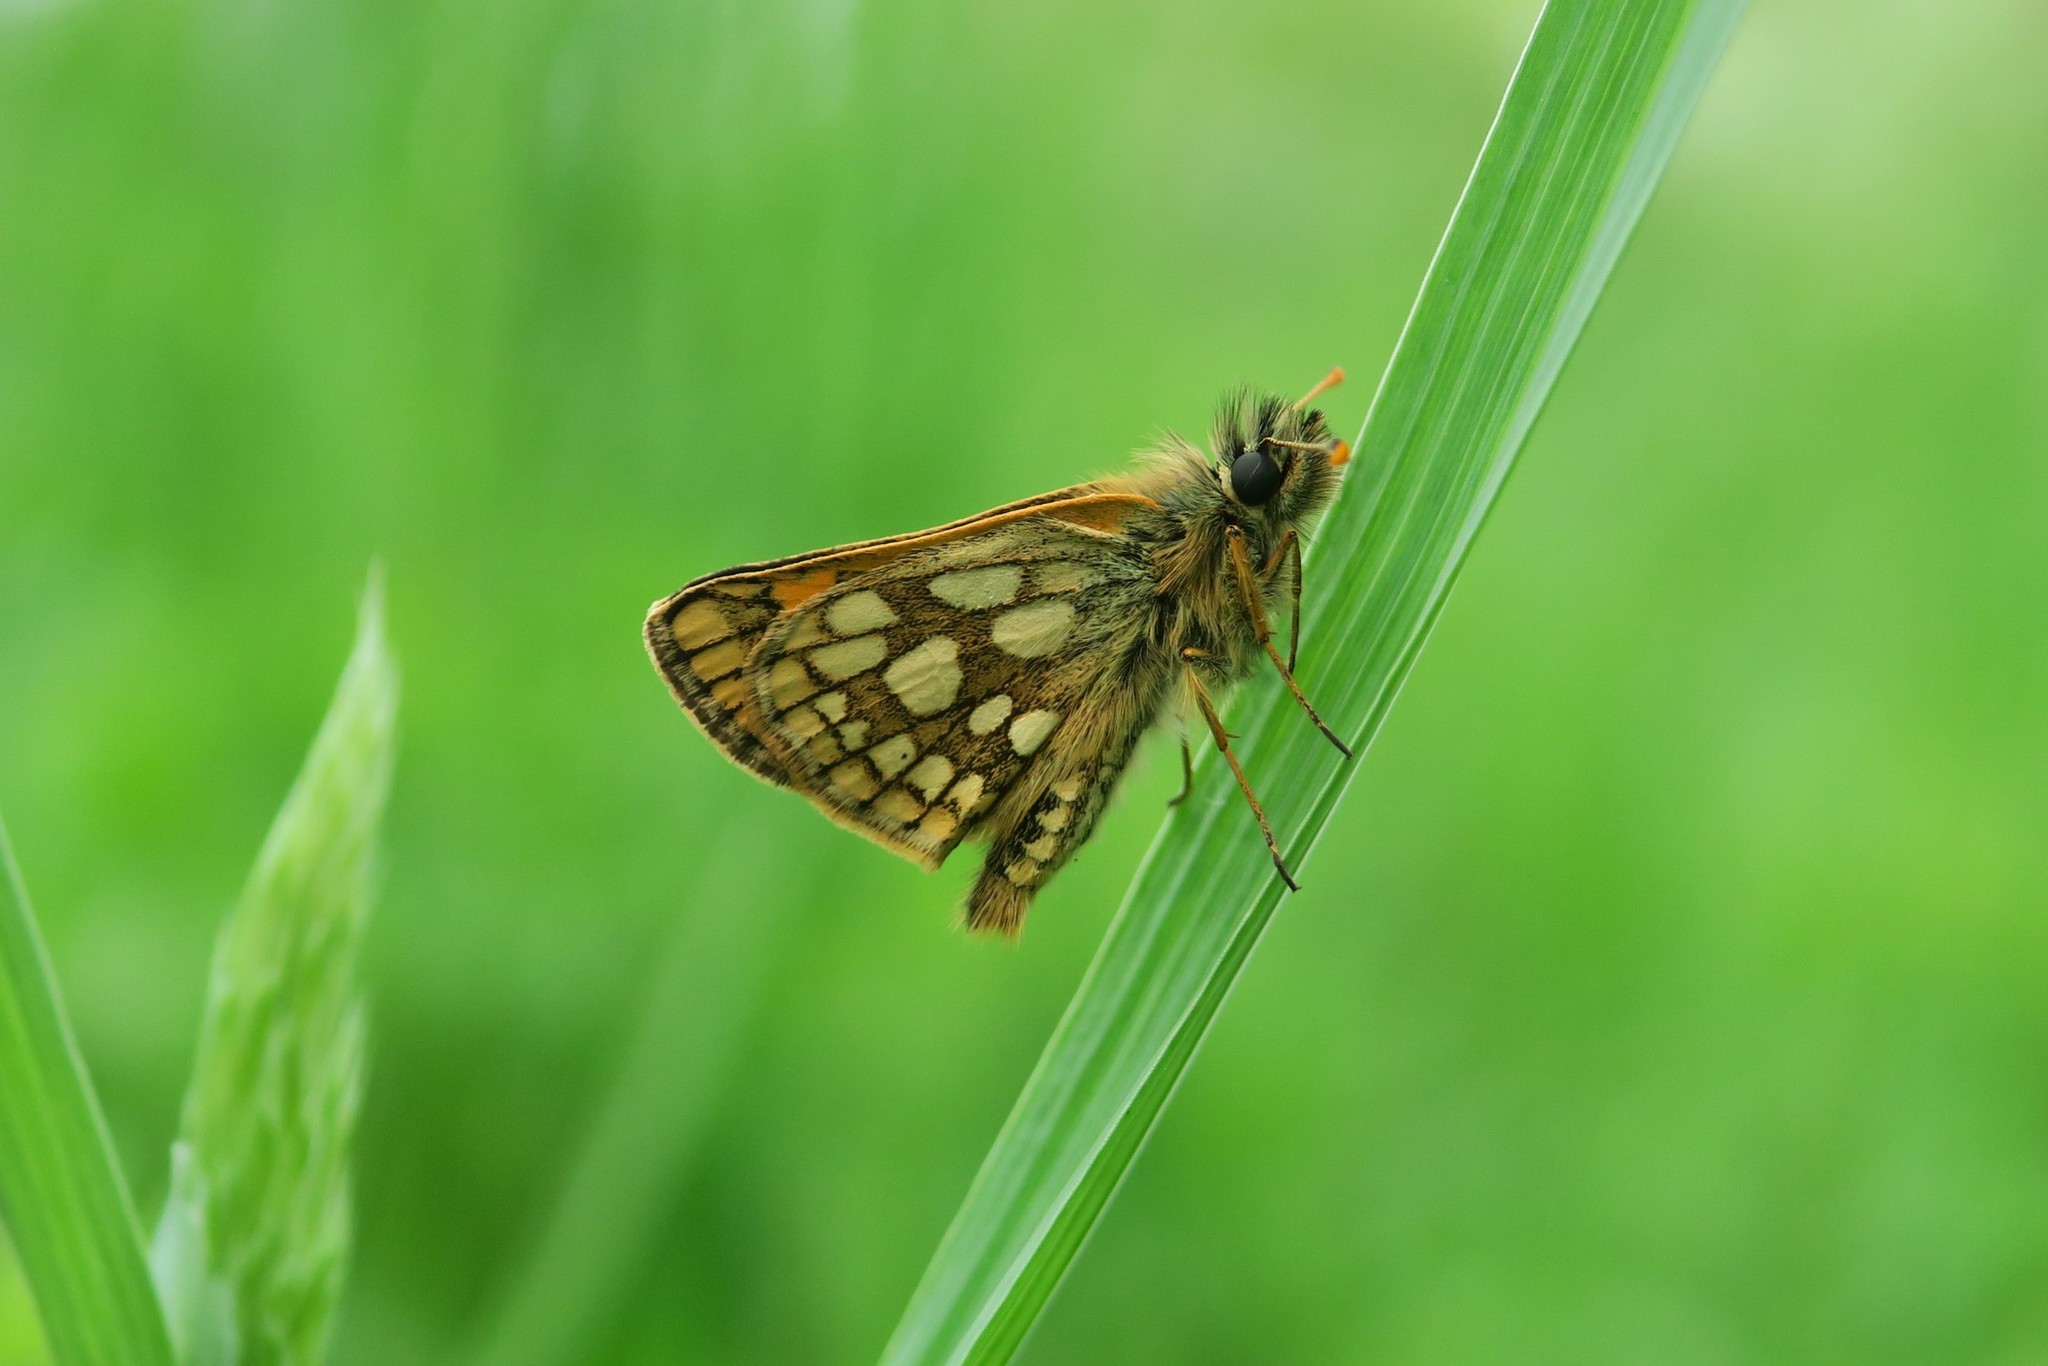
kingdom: Animalia
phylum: Arthropoda
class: Insecta
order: Lepidoptera
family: Hesperiidae
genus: Carterocephalus
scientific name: Carterocephalus palaemon
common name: Chequered skipper
